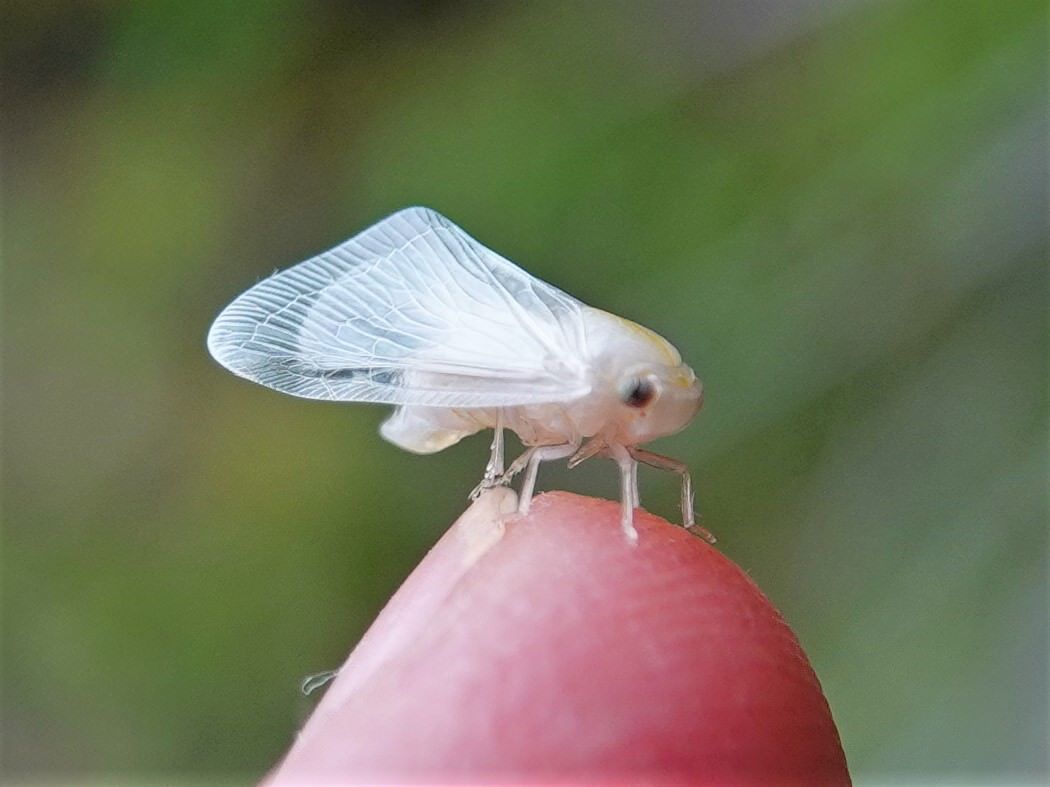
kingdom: Animalia
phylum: Arthropoda
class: Insecta
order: Hemiptera
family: Ricaniidae
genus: Scolypopa
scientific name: Scolypopa australis
